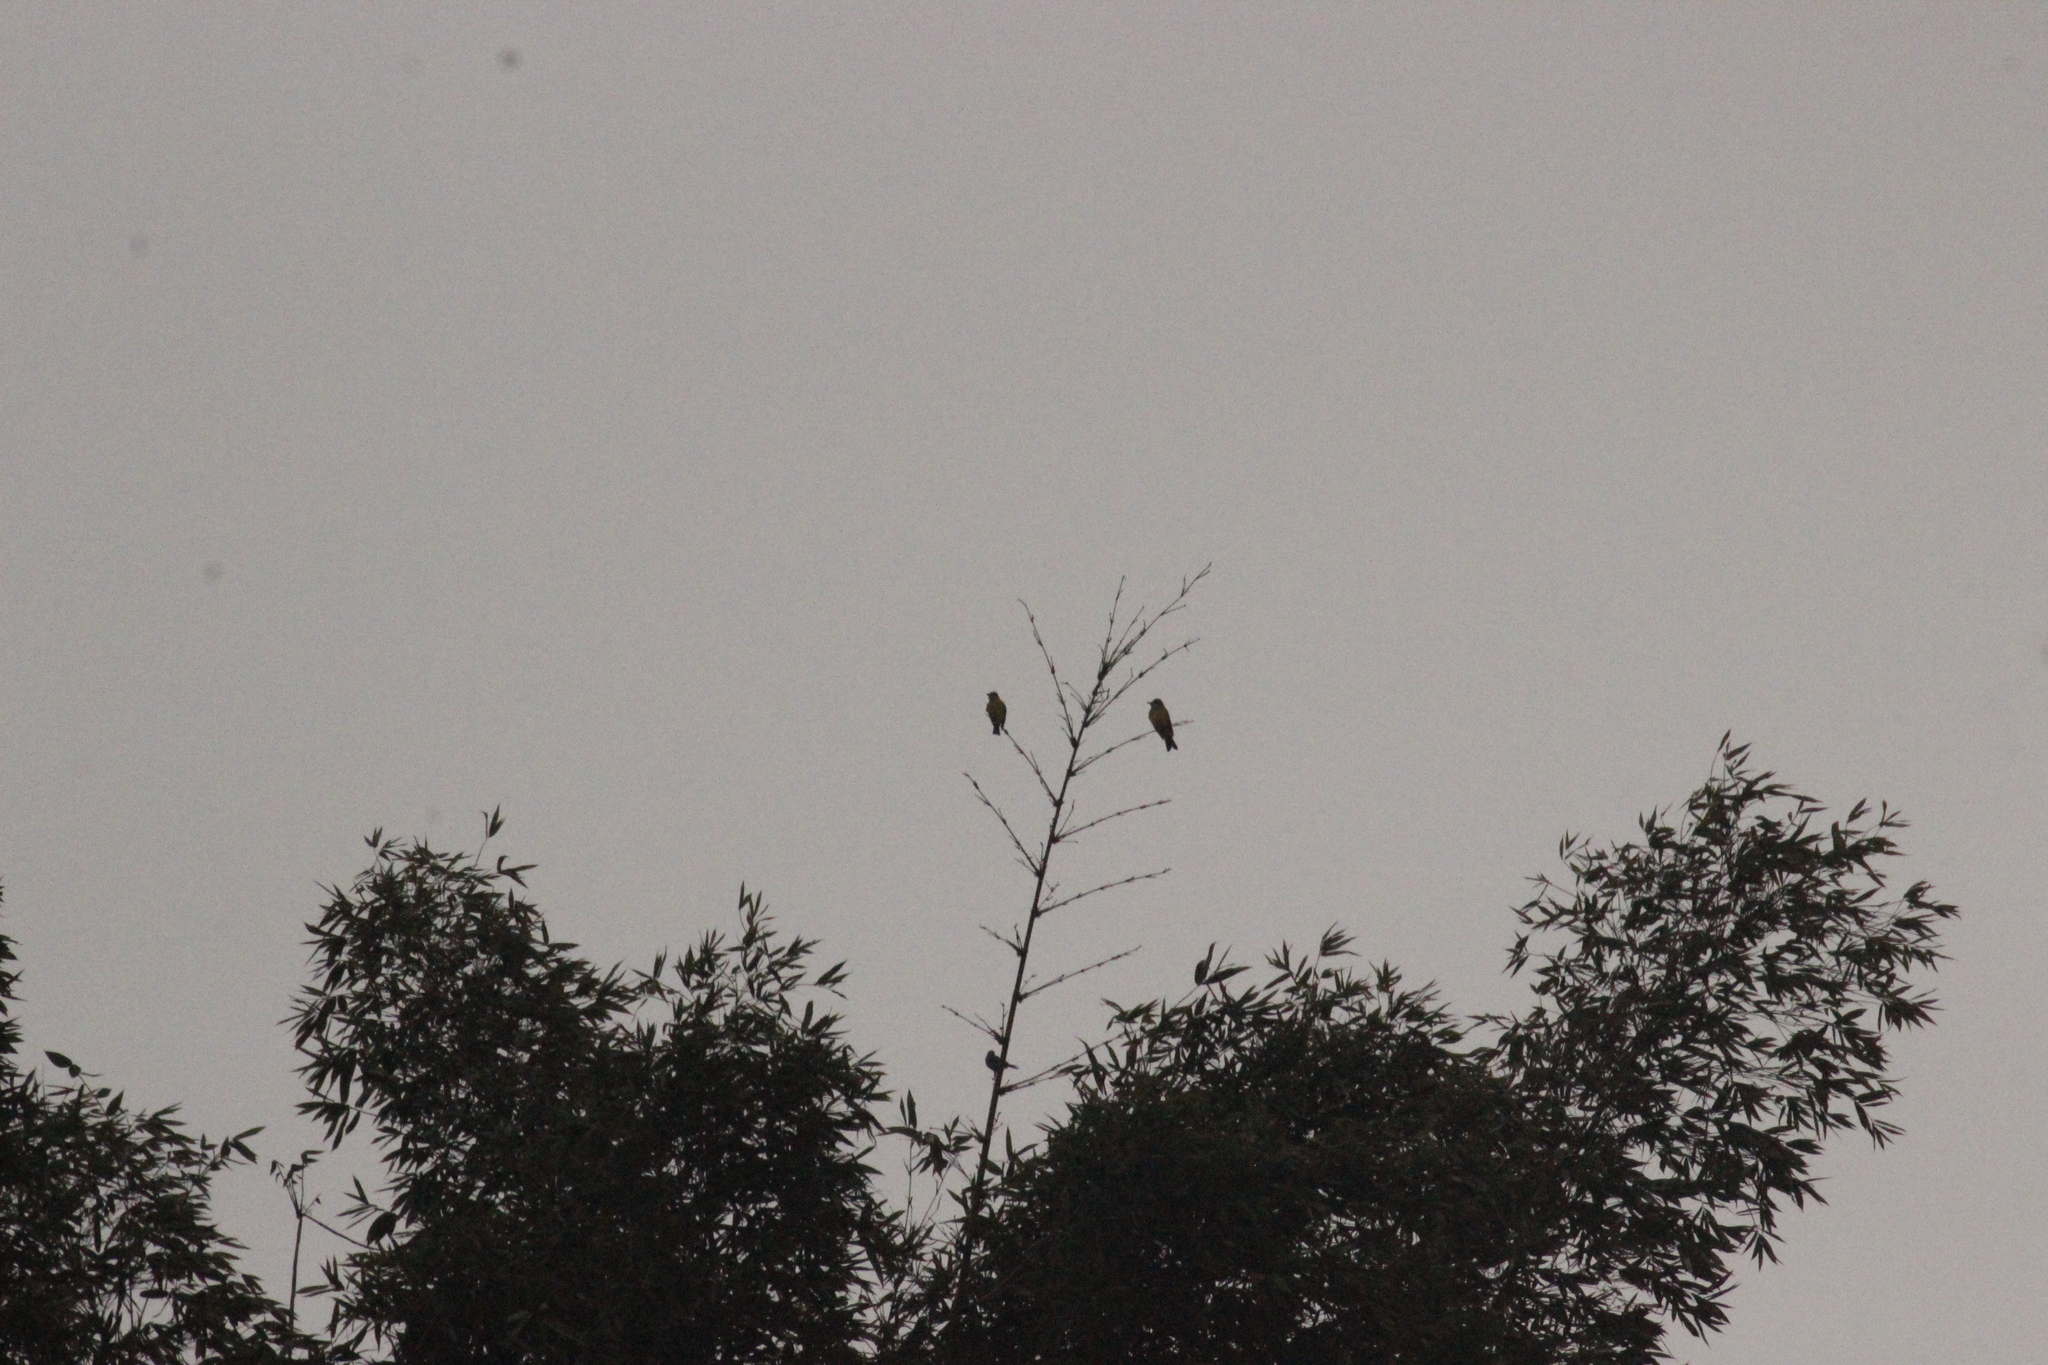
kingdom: Animalia
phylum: Chordata
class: Aves
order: Passeriformes
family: Tyrannidae
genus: Tyrannus
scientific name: Tyrannus melancholicus
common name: Tropical kingbird
